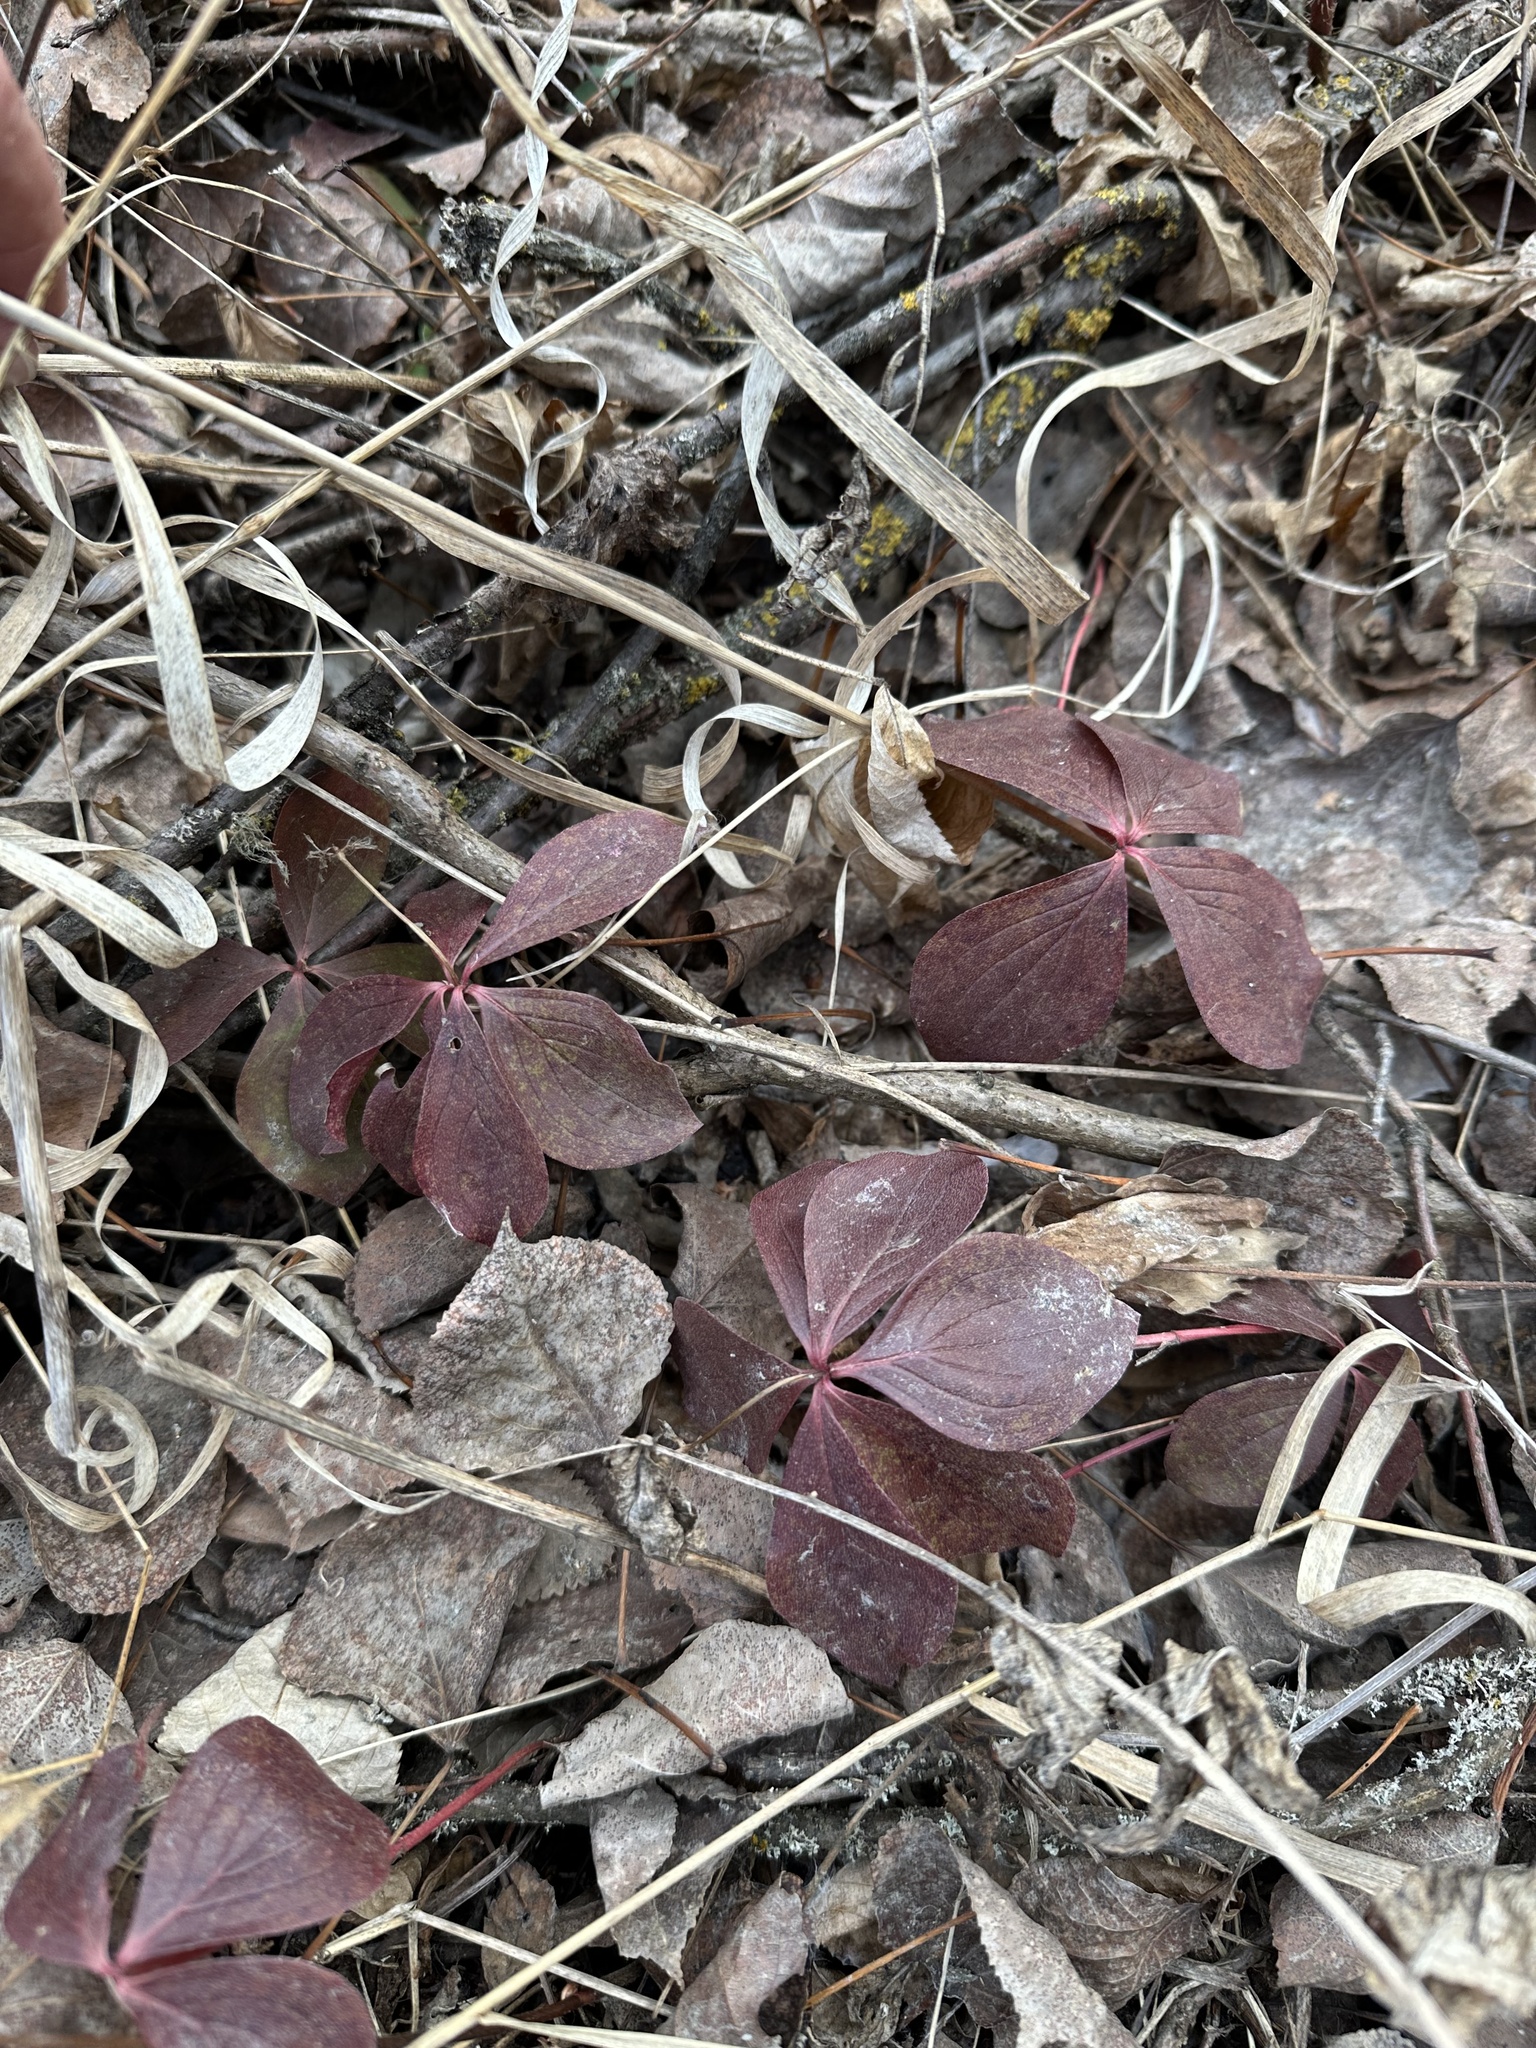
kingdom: Plantae
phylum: Tracheophyta
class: Magnoliopsida
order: Cornales
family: Cornaceae
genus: Cornus
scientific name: Cornus canadensis
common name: Creeping dogwood
